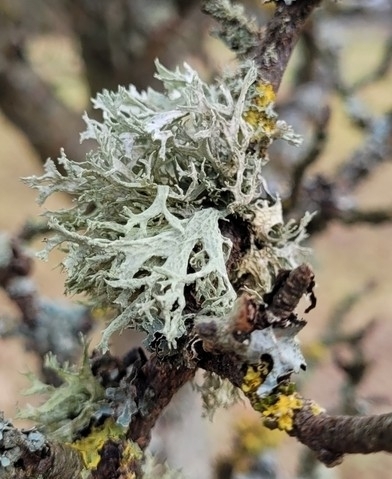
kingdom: Fungi
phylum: Ascomycota
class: Lecanoromycetes
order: Lecanorales
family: Parmeliaceae
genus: Evernia
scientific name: Evernia prunastri
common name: Oak moss
